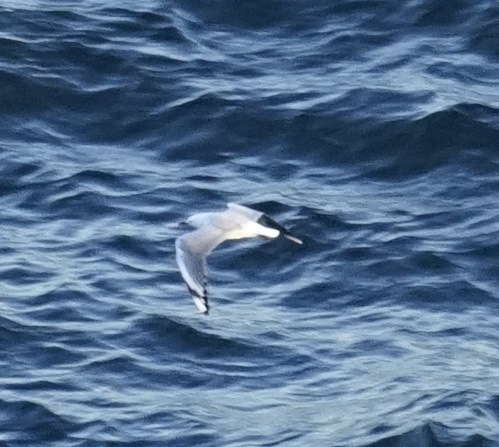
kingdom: Animalia
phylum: Chordata
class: Aves
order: Charadriiformes
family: Laridae
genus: Chroicocephalus
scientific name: Chroicocephalus novaehollandiae
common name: Silver gull
